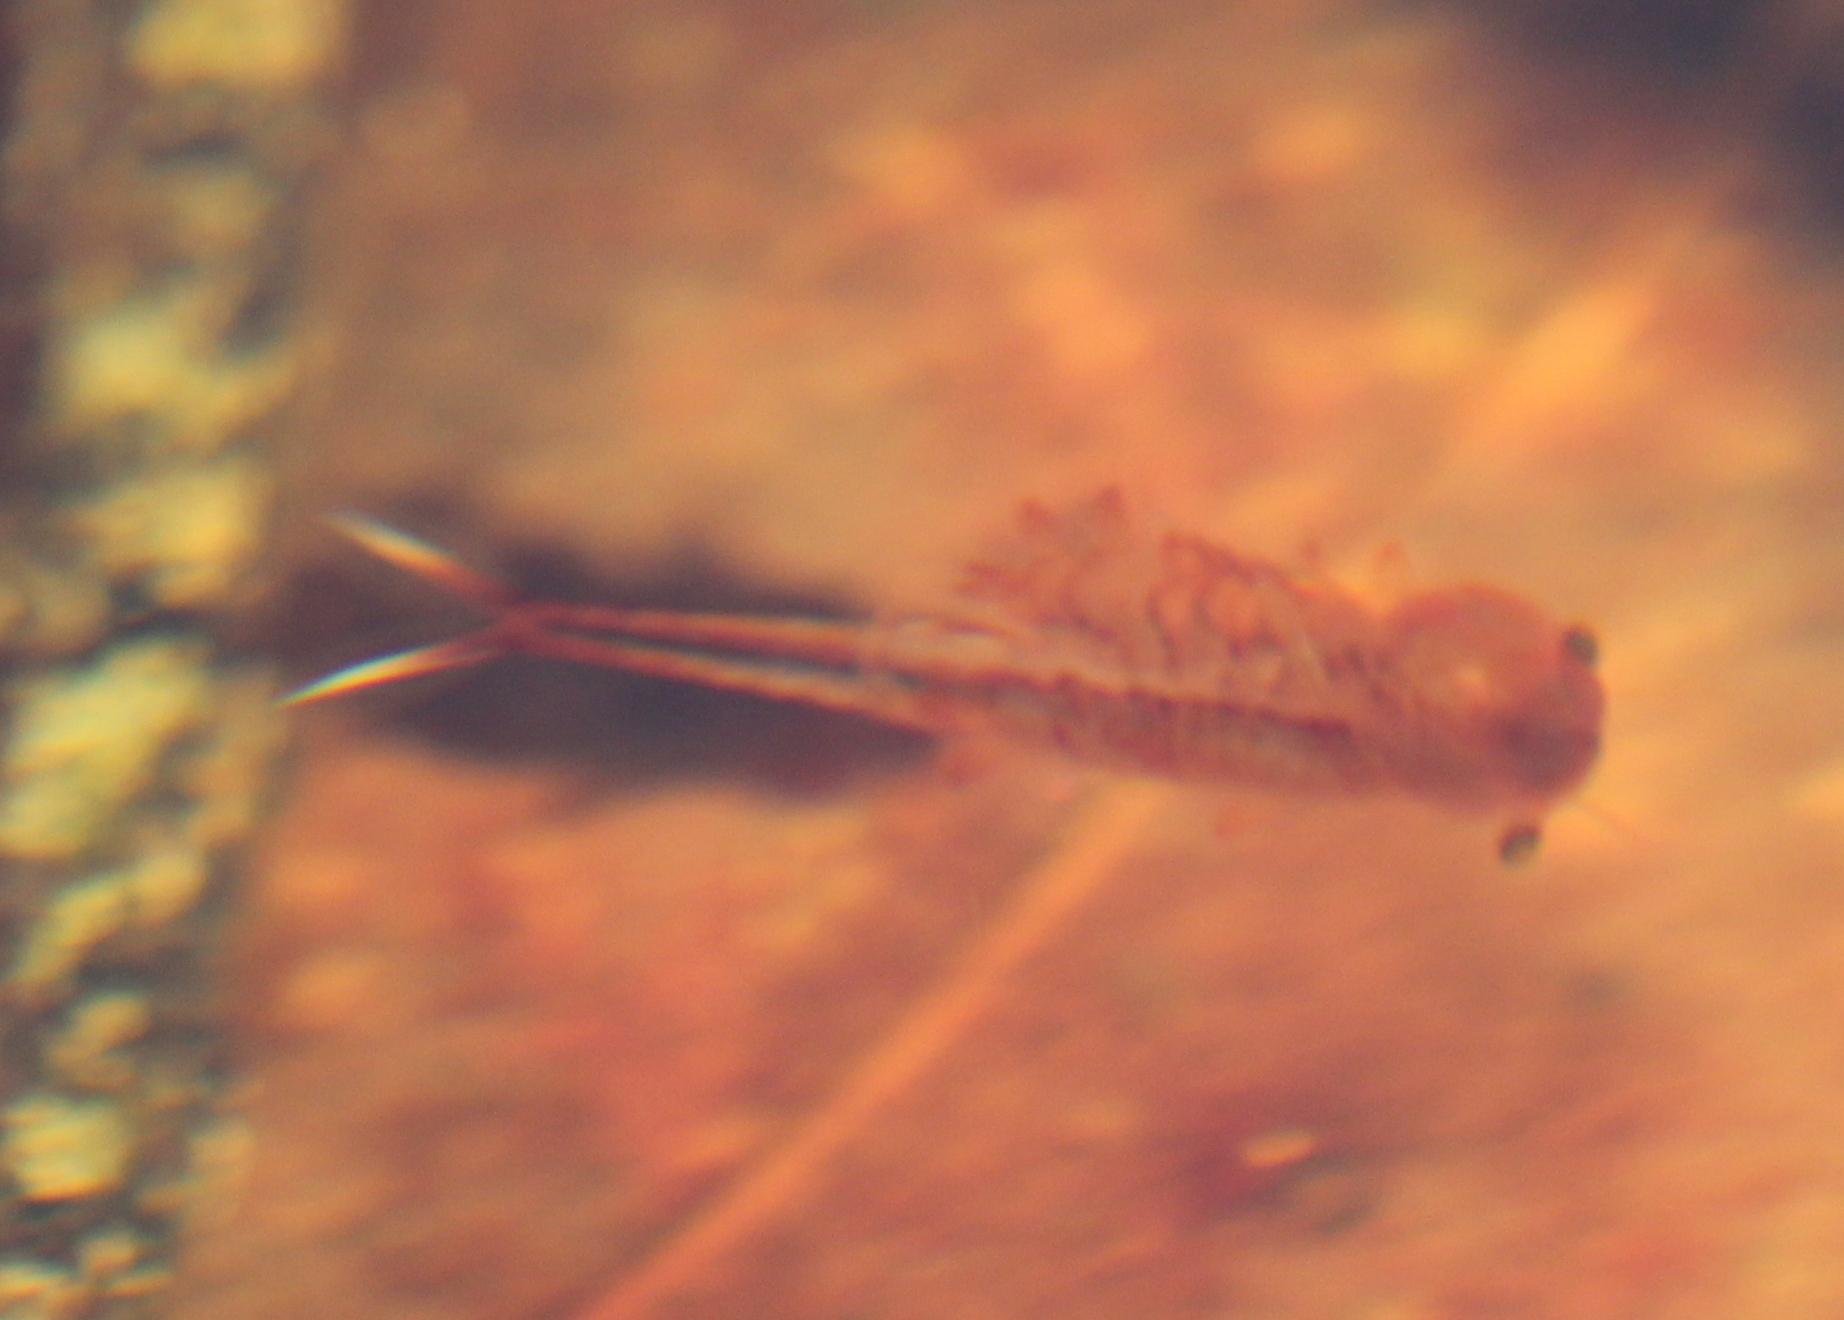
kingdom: Animalia
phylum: Arthropoda
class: Branchiopoda
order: Anostraca
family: Chirocephalidae
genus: Eubranchipus
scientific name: Eubranchipus vernalis
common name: Eastern fairy shrimp
